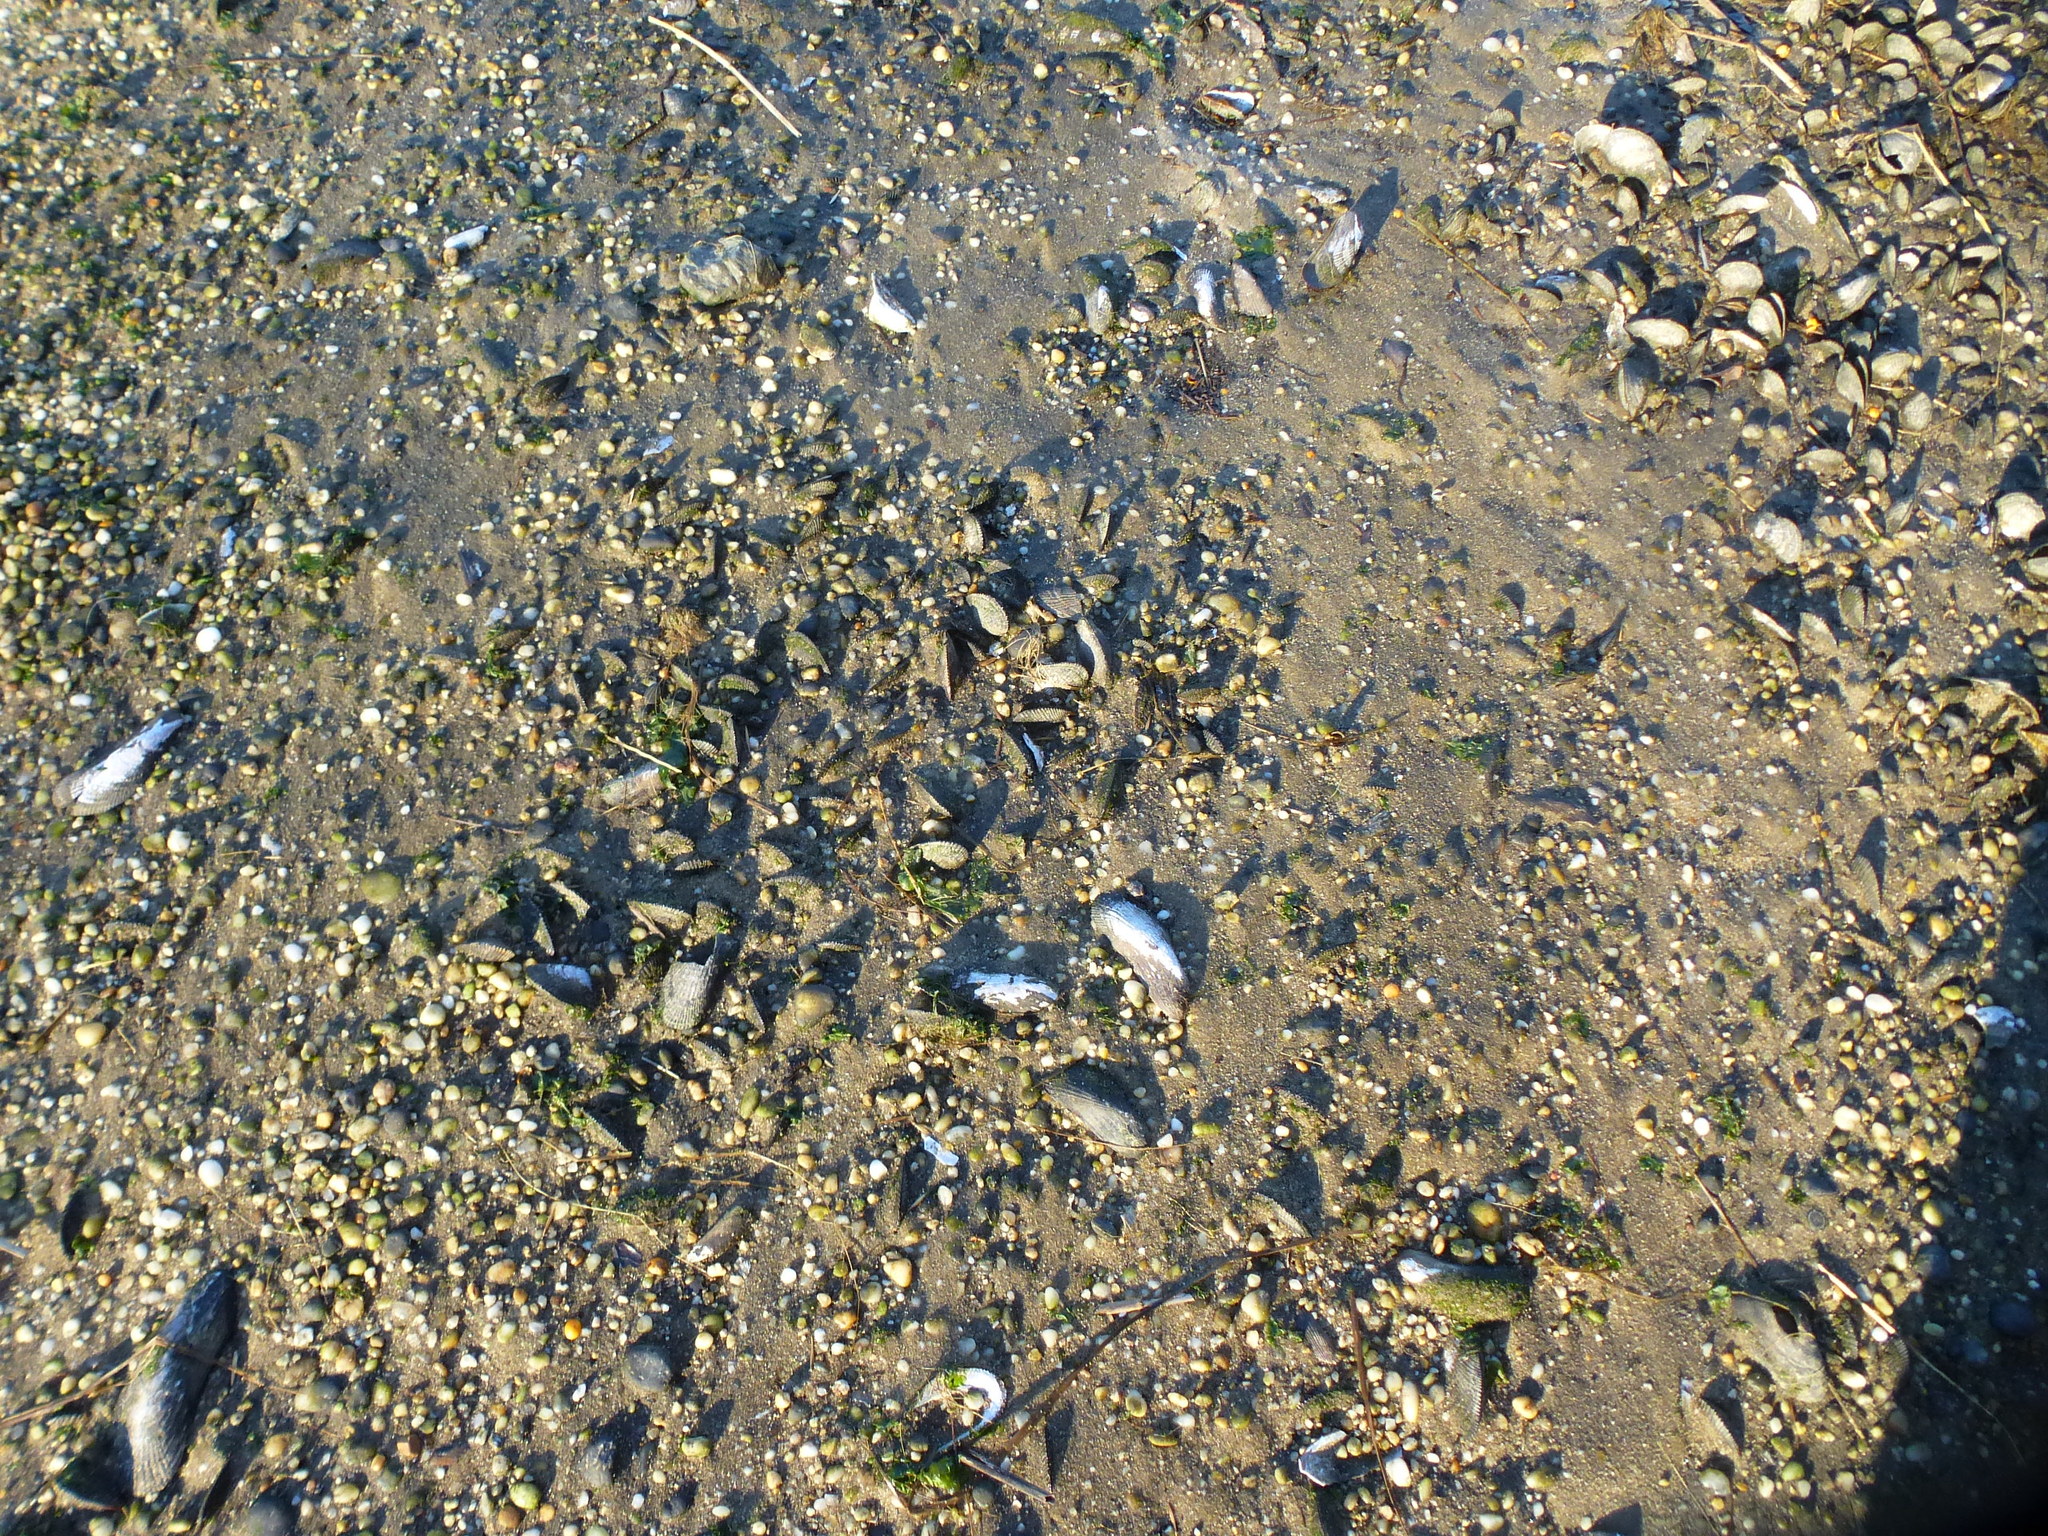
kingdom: Animalia
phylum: Mollusca
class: Bivalvia
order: Mytilida
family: Mytilidae
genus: Geukensia
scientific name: Geukensia demissa
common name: Ribbed mussel
